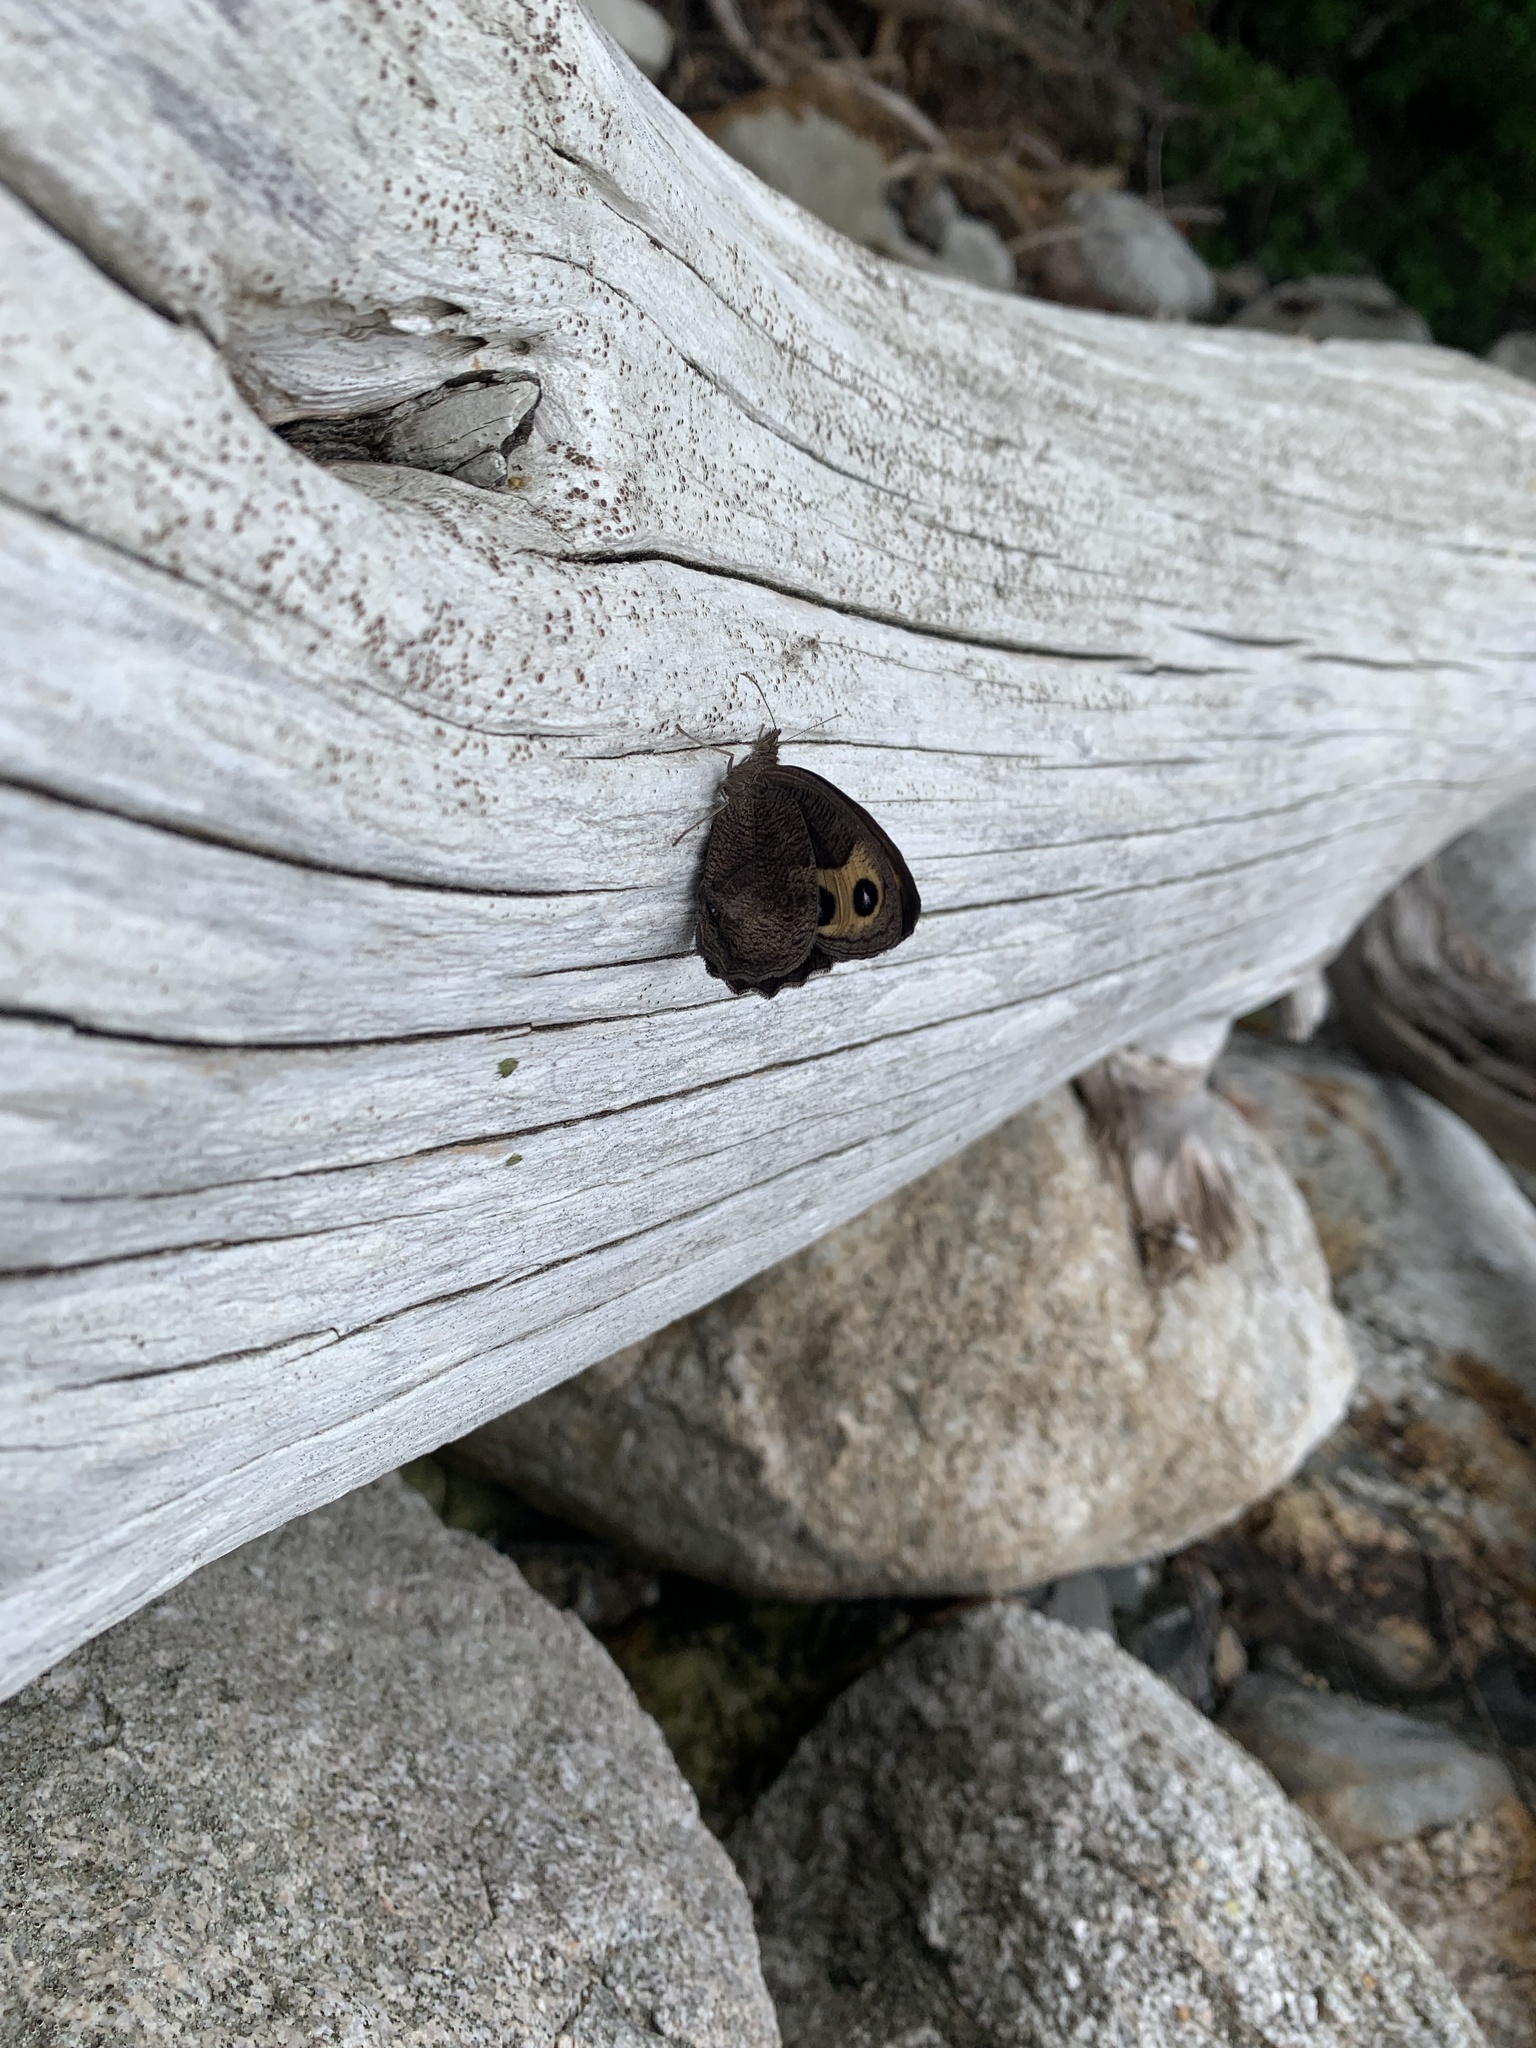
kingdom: Animalia
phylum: Arthropoda
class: Insecta
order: Lepidoptera
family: Nymphalidae
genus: Cercyonis
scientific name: Cercyonis pegala
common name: Common wood-nymph
